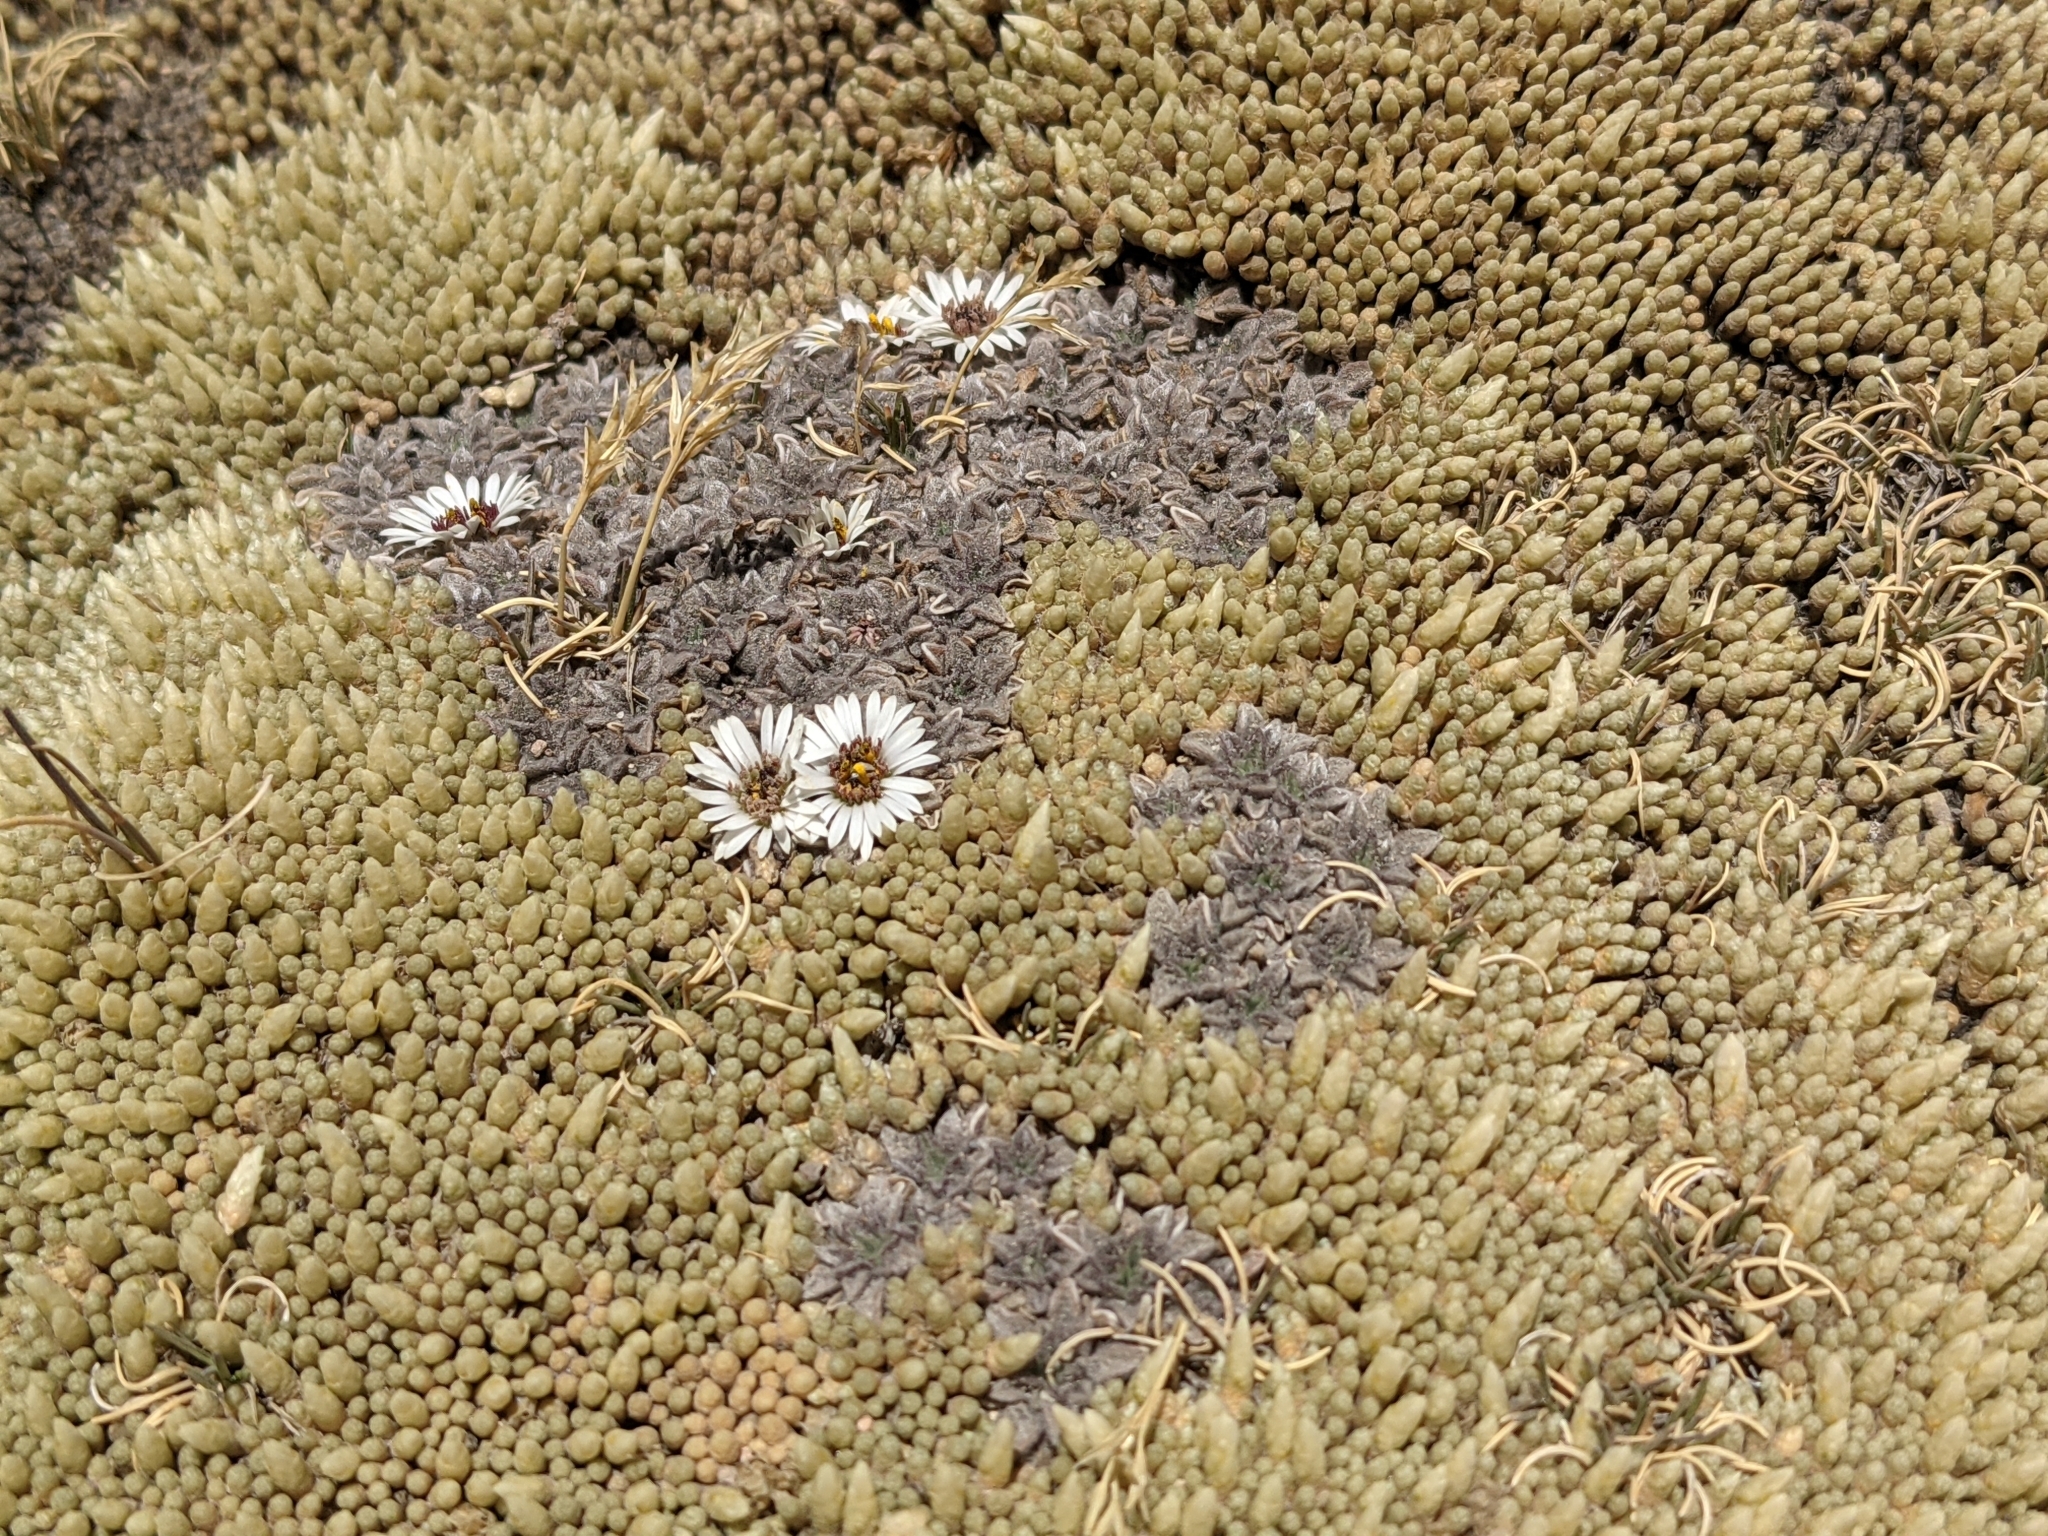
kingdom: Plantae
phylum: Tracheophyta
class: Magnoliopsida
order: Asterales
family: Asteraceae
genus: Erigeron
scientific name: Erigeron rosulatus
